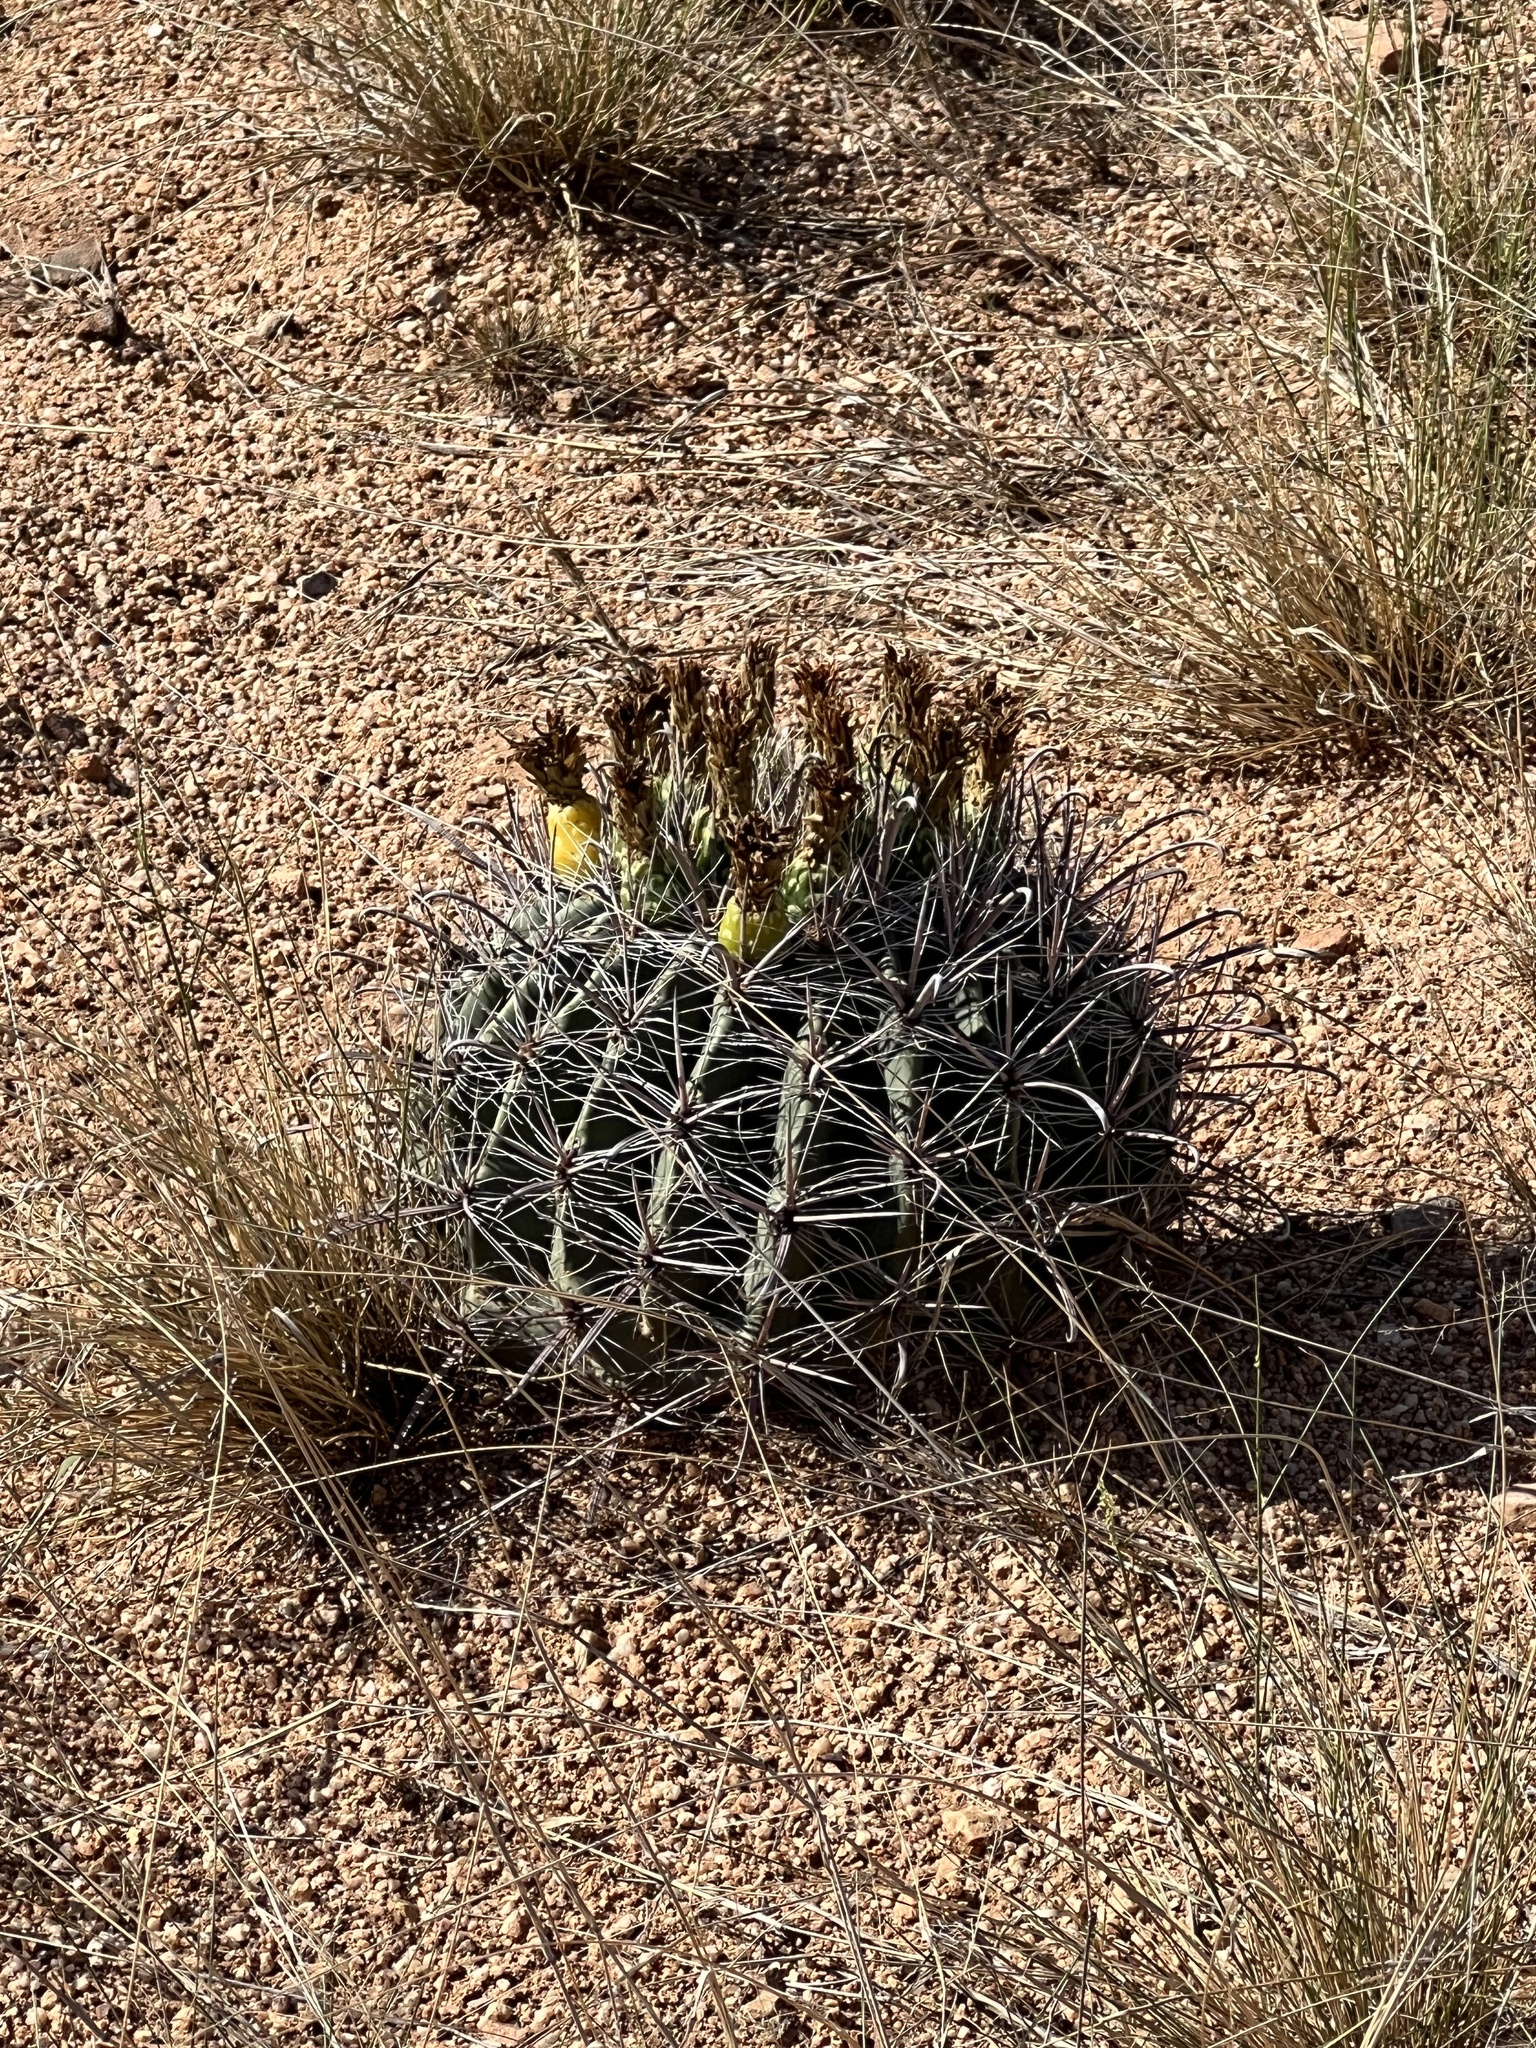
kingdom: Plantae
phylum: Tracheophyta
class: Magnoliopsida
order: Caryophyllales
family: Cactaceae
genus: Ferocactus
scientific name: Ferocactus wislizeni
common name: Candy barrel cactus
